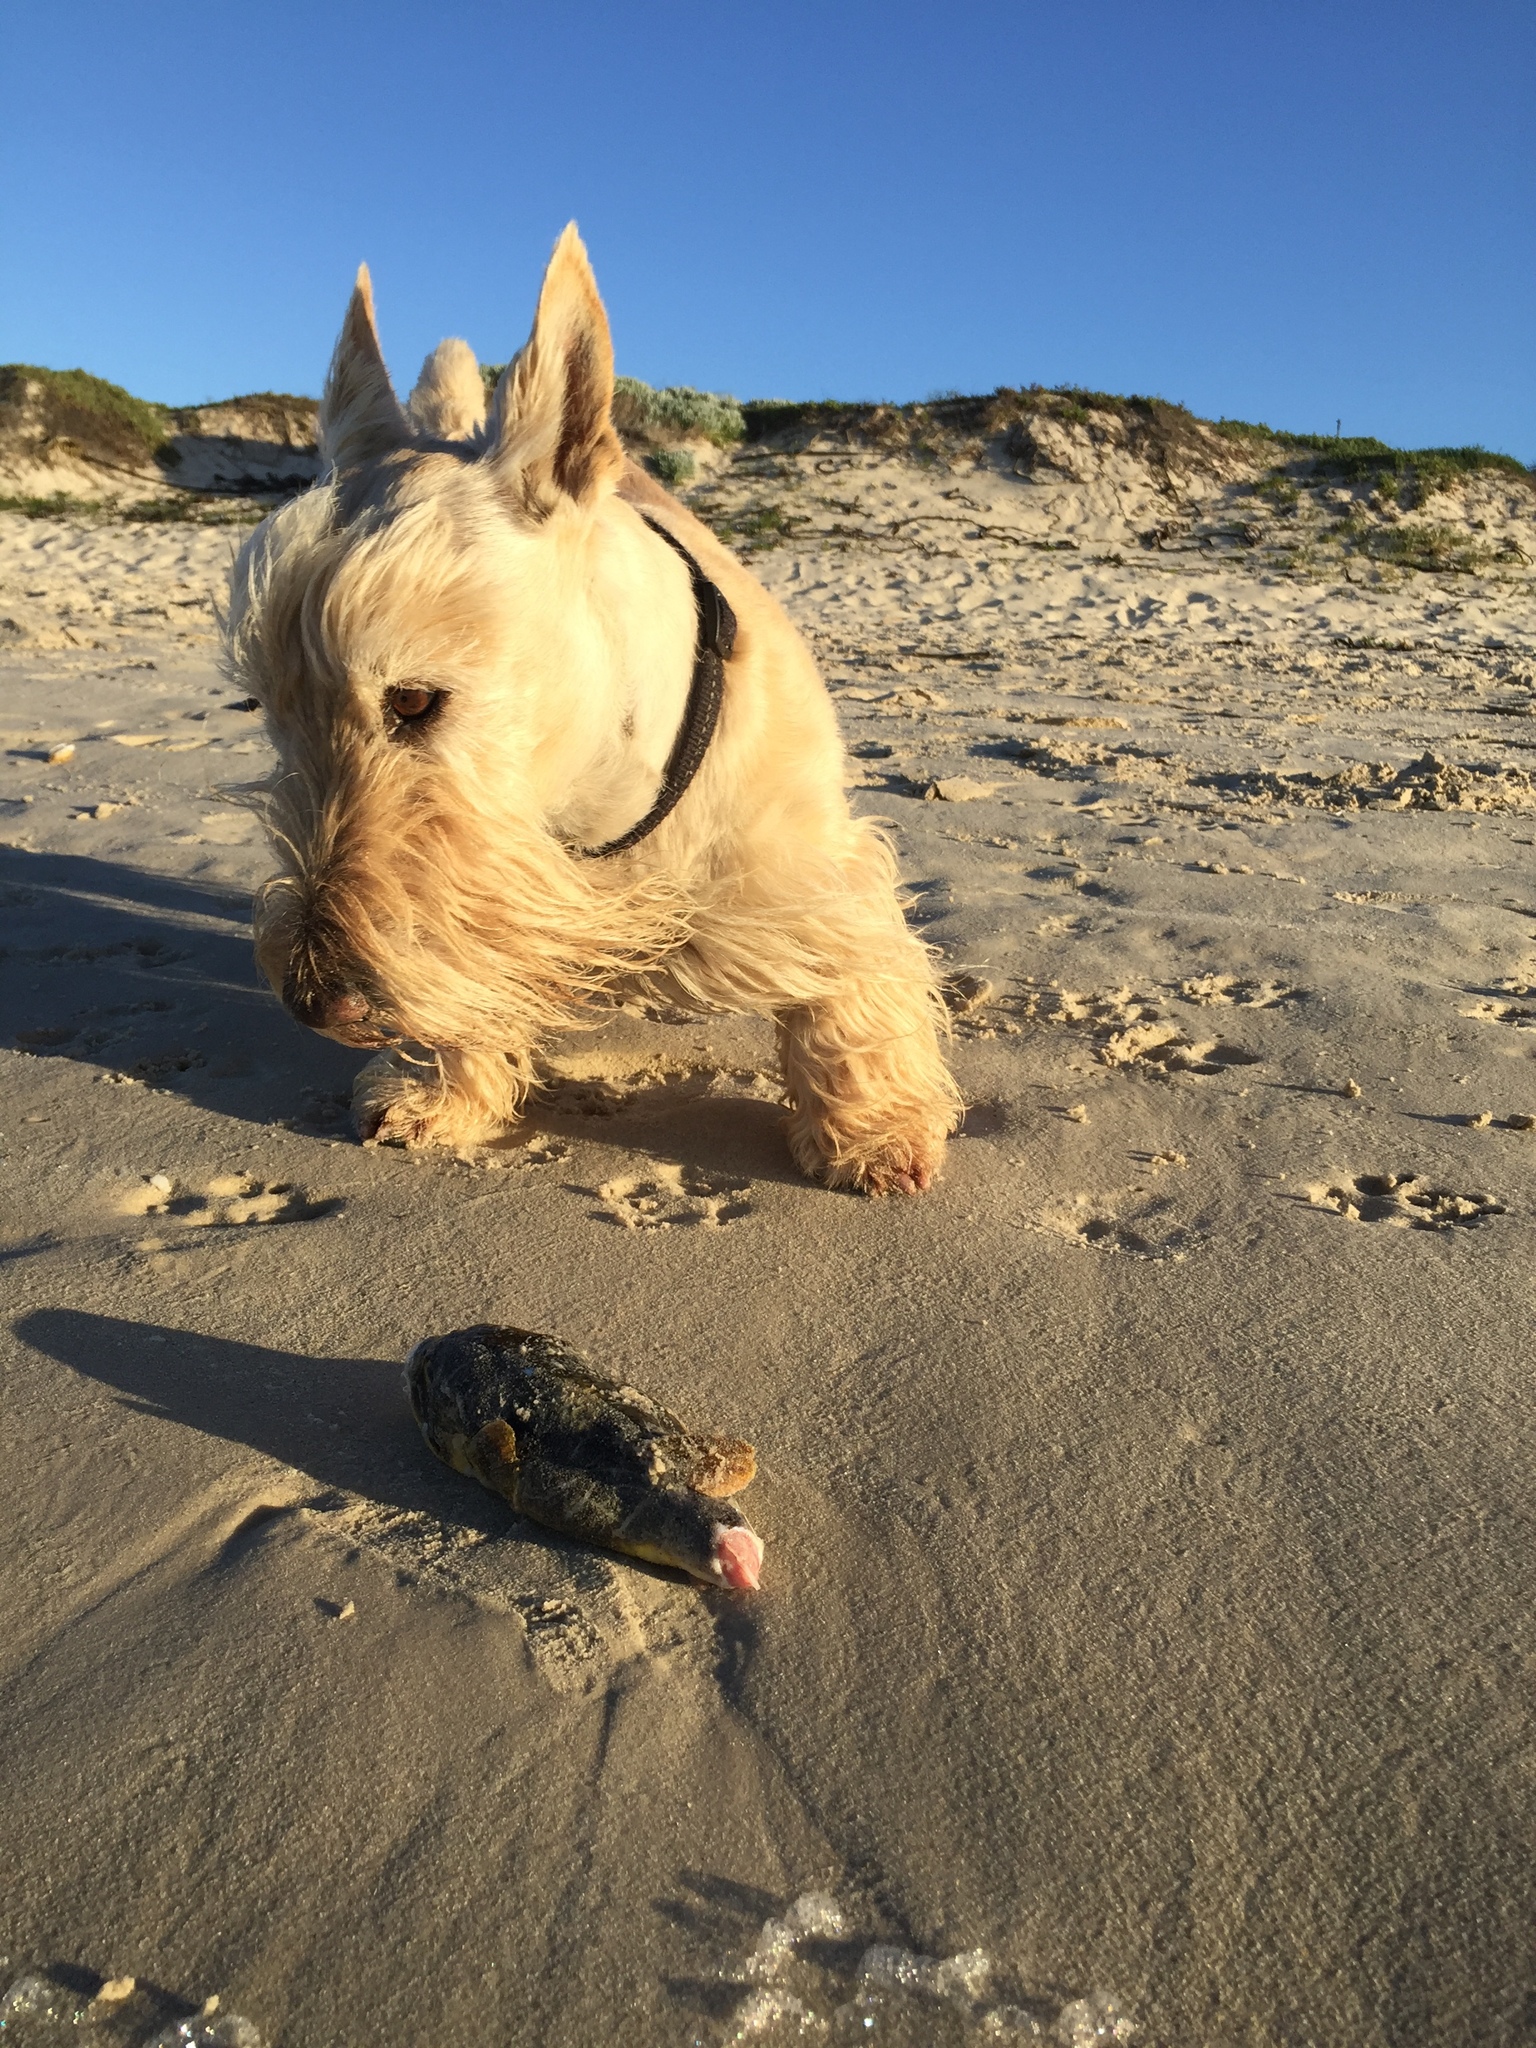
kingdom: Animalia
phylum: Chordata
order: Tetraodontiformes
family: Tetraodontidae
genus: Amblyrhynchote
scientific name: Amblyrhynchote honckenii
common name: Evileye blaasop
